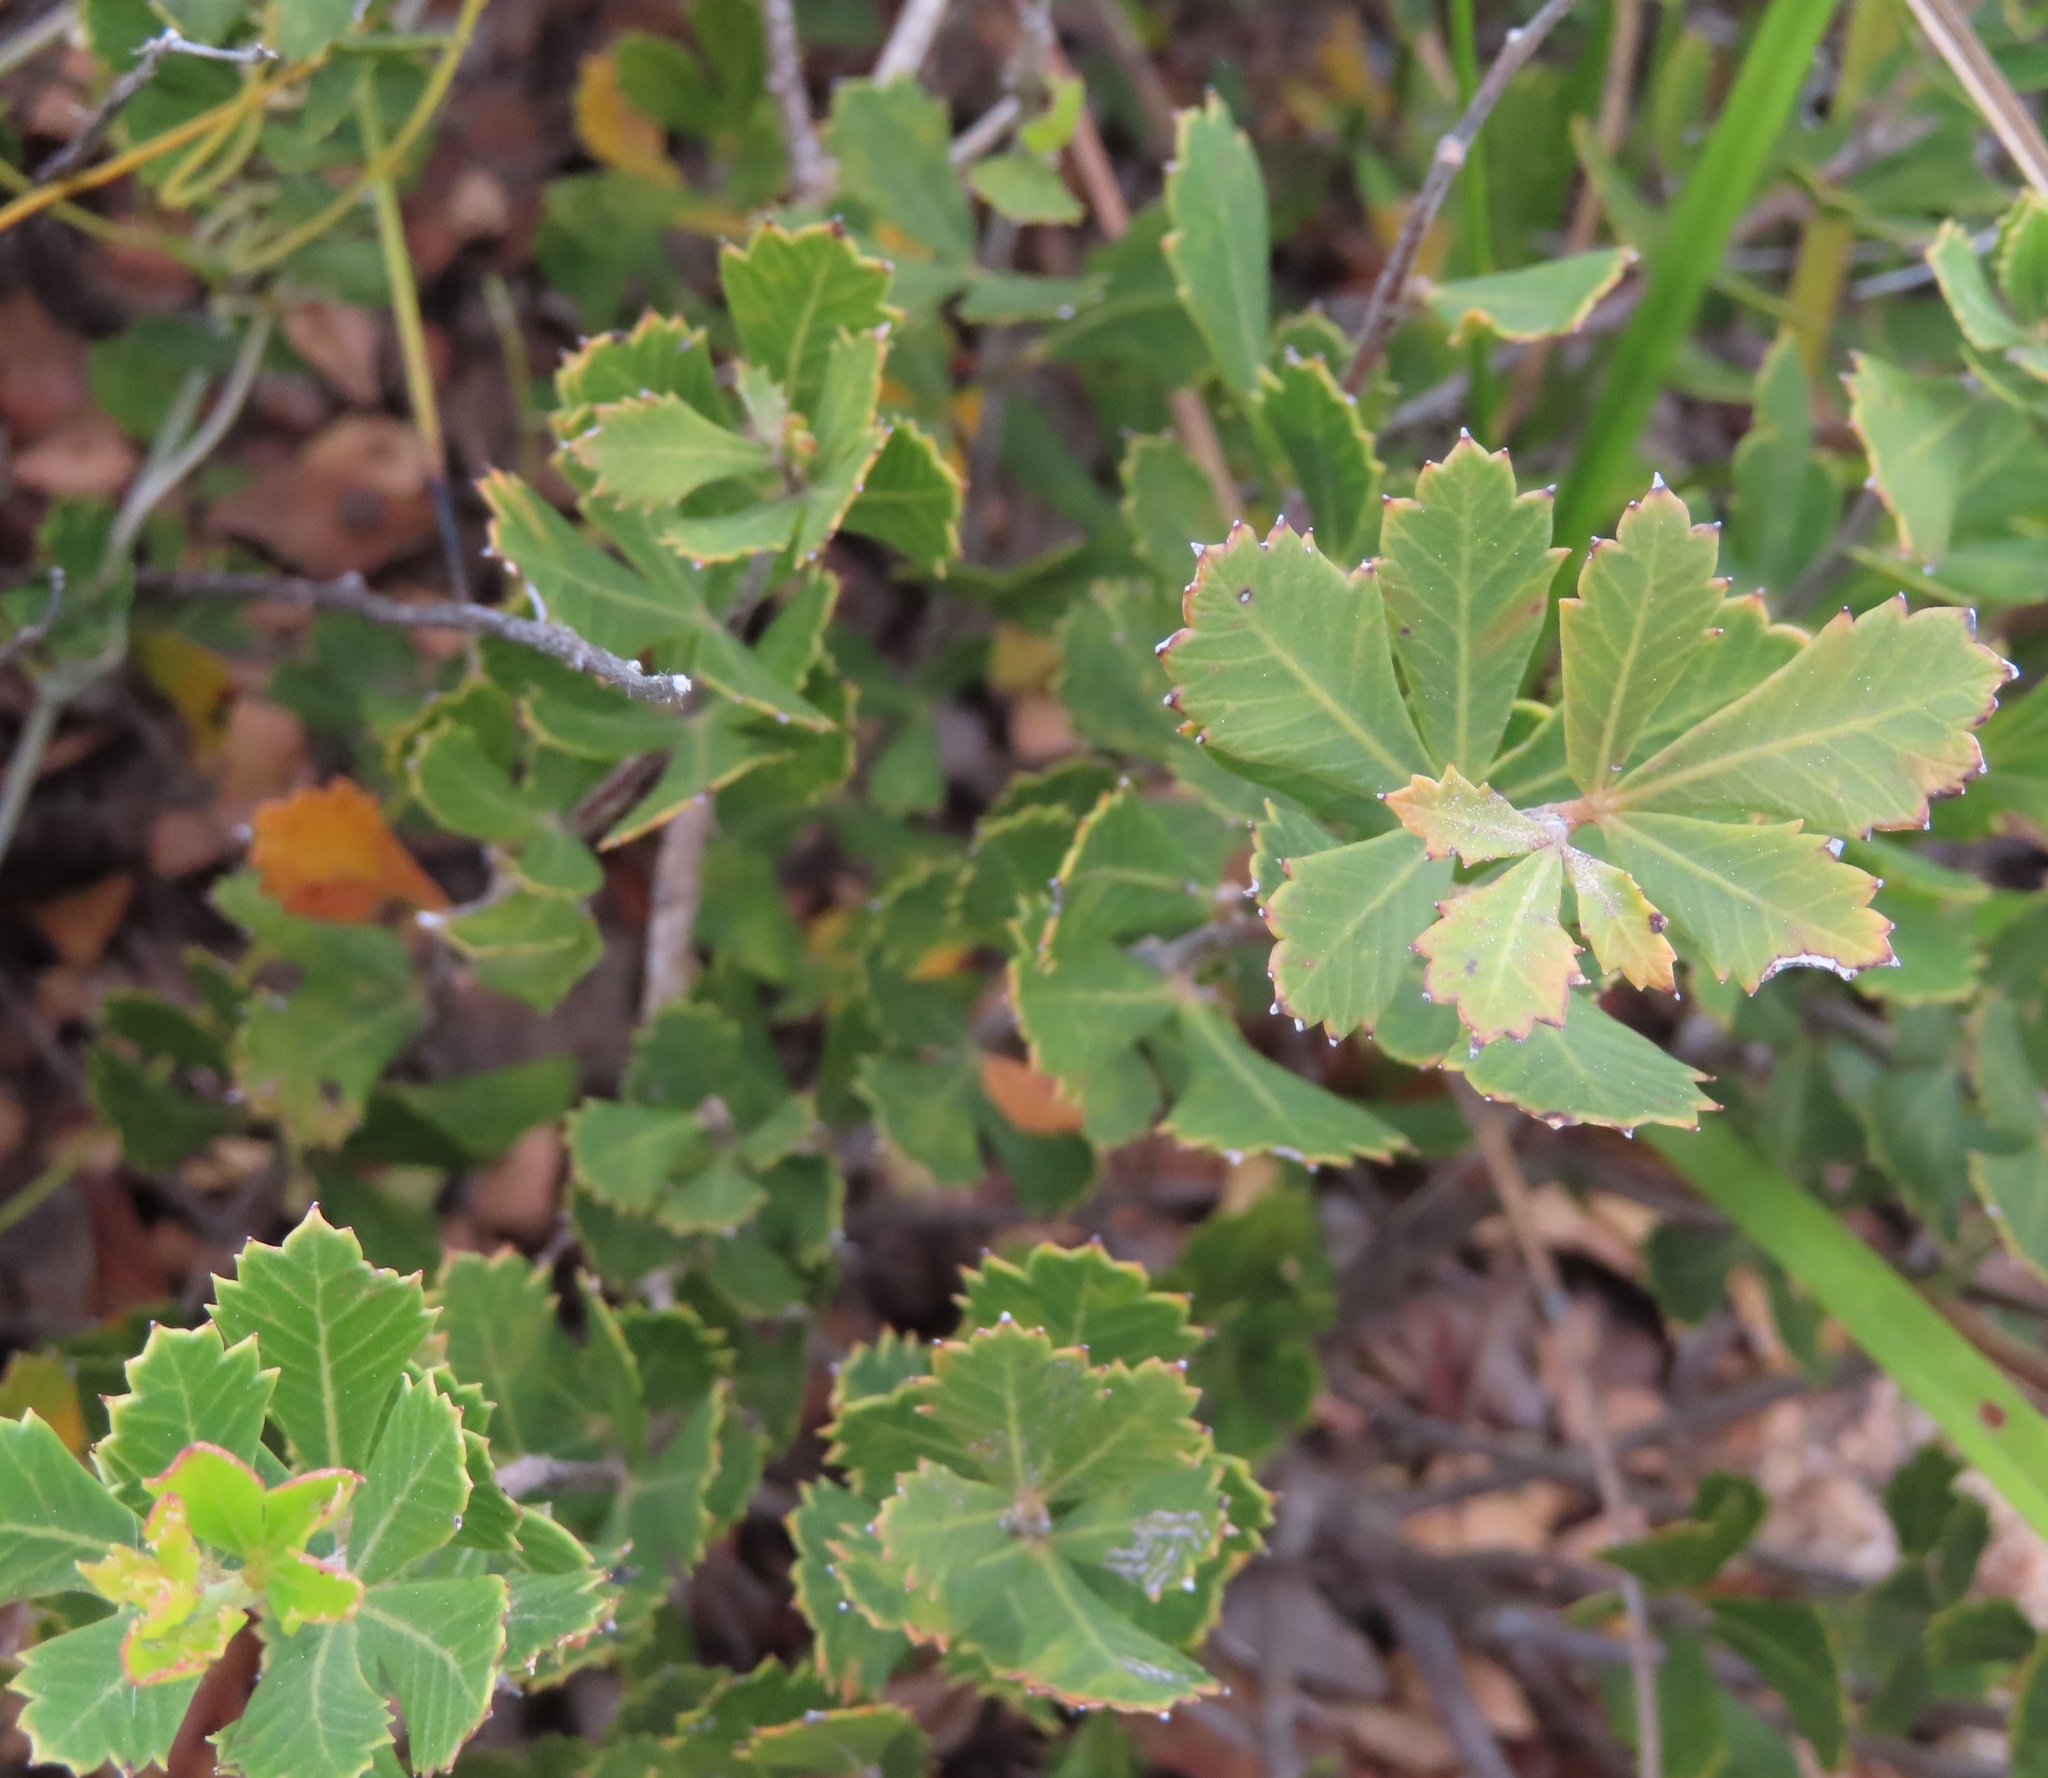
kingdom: Plantae
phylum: Tracheophyta
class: Magnoliopsida
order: Sapindales
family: Anacardiaceae
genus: Searsia
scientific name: Searsia cuneifolia
